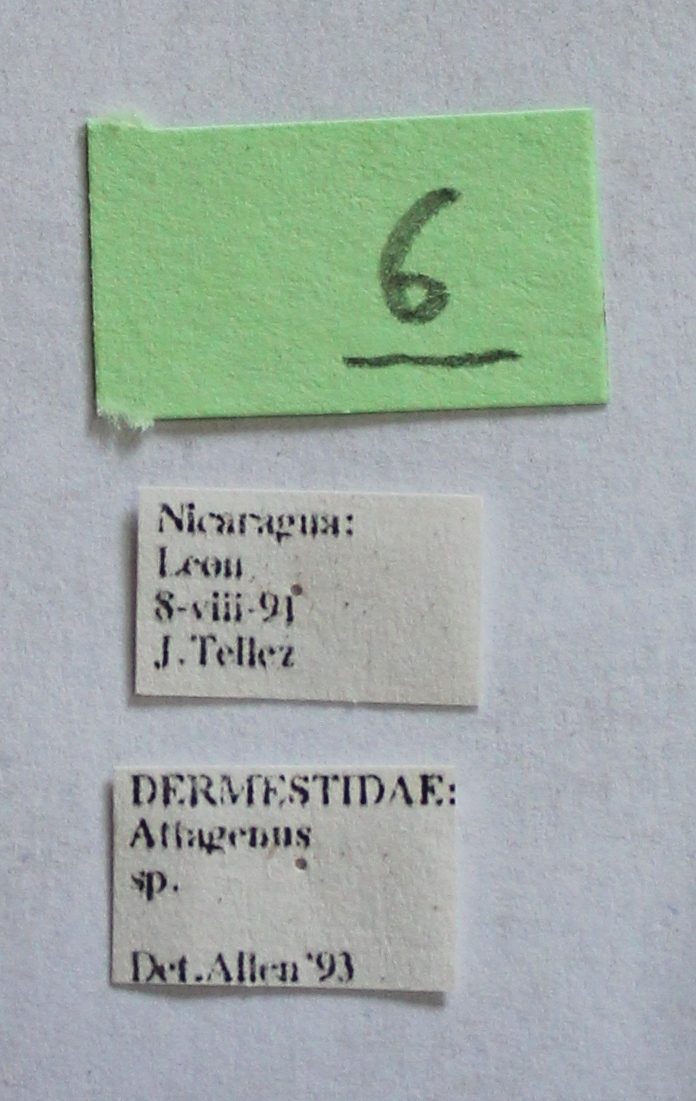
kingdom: Animalia
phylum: Arthropoda
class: Insecta
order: Coleoptera
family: Dermestidae
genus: Attagenus
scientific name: Attagenus fasciatus
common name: Wardrobe beetle
